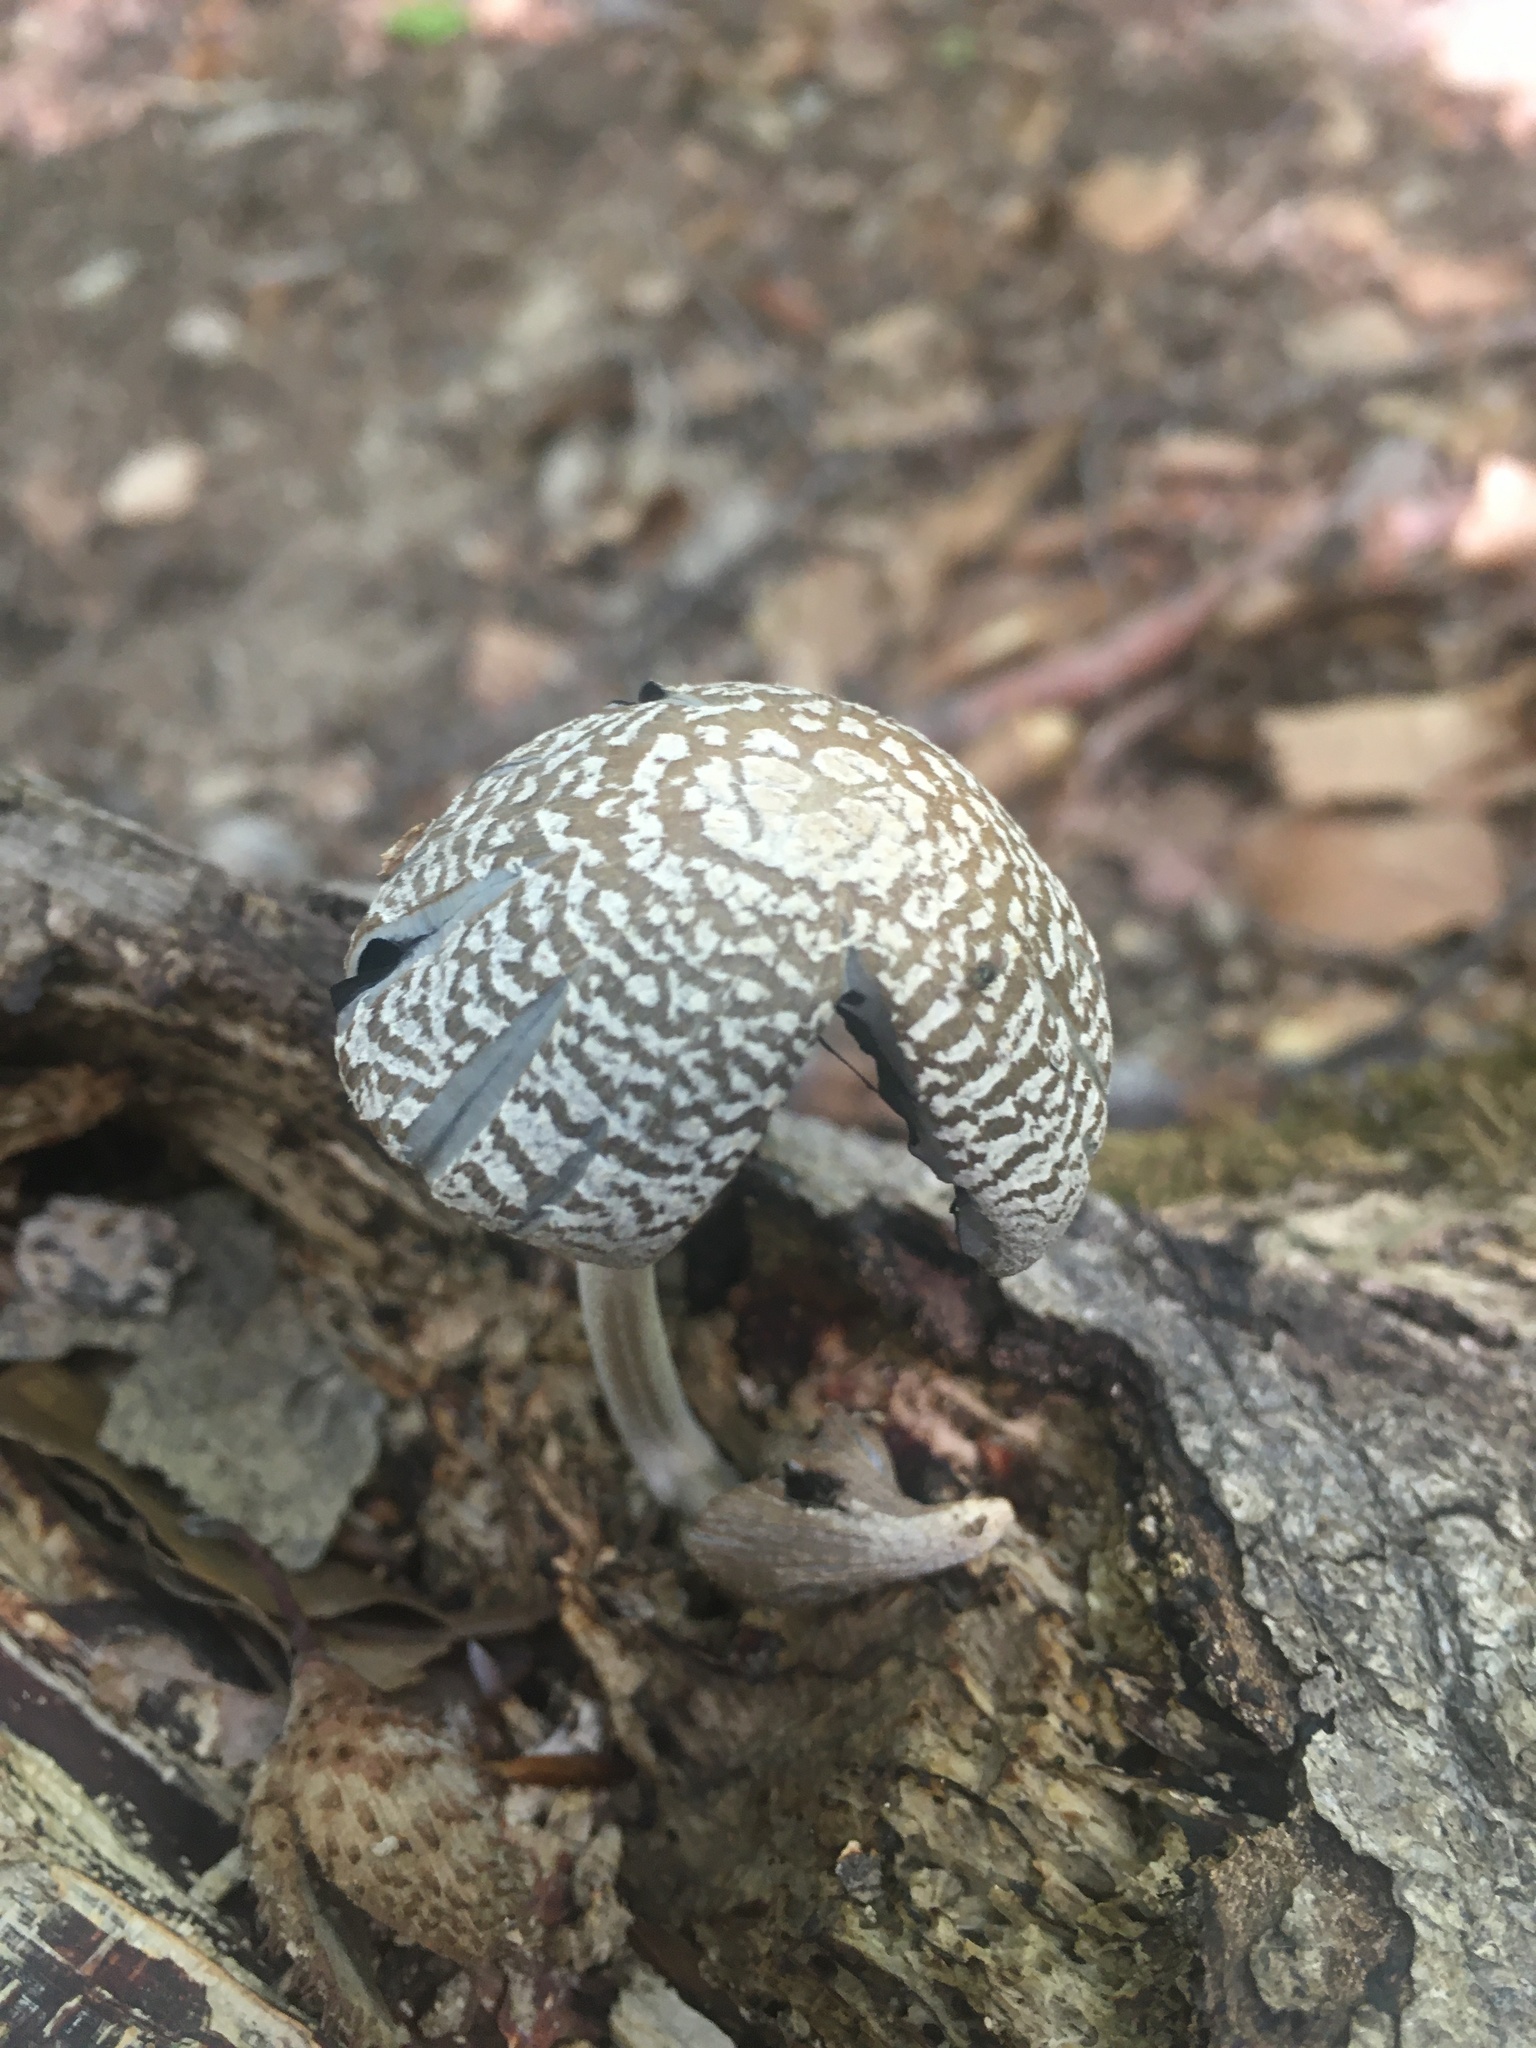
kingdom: Fungi
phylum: Basidiomycota
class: Agaricomycetes
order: Agaricales
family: Psathyrellaceae
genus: Coprinopsis
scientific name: Coprinopsis picacea
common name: Magpie inkcap
